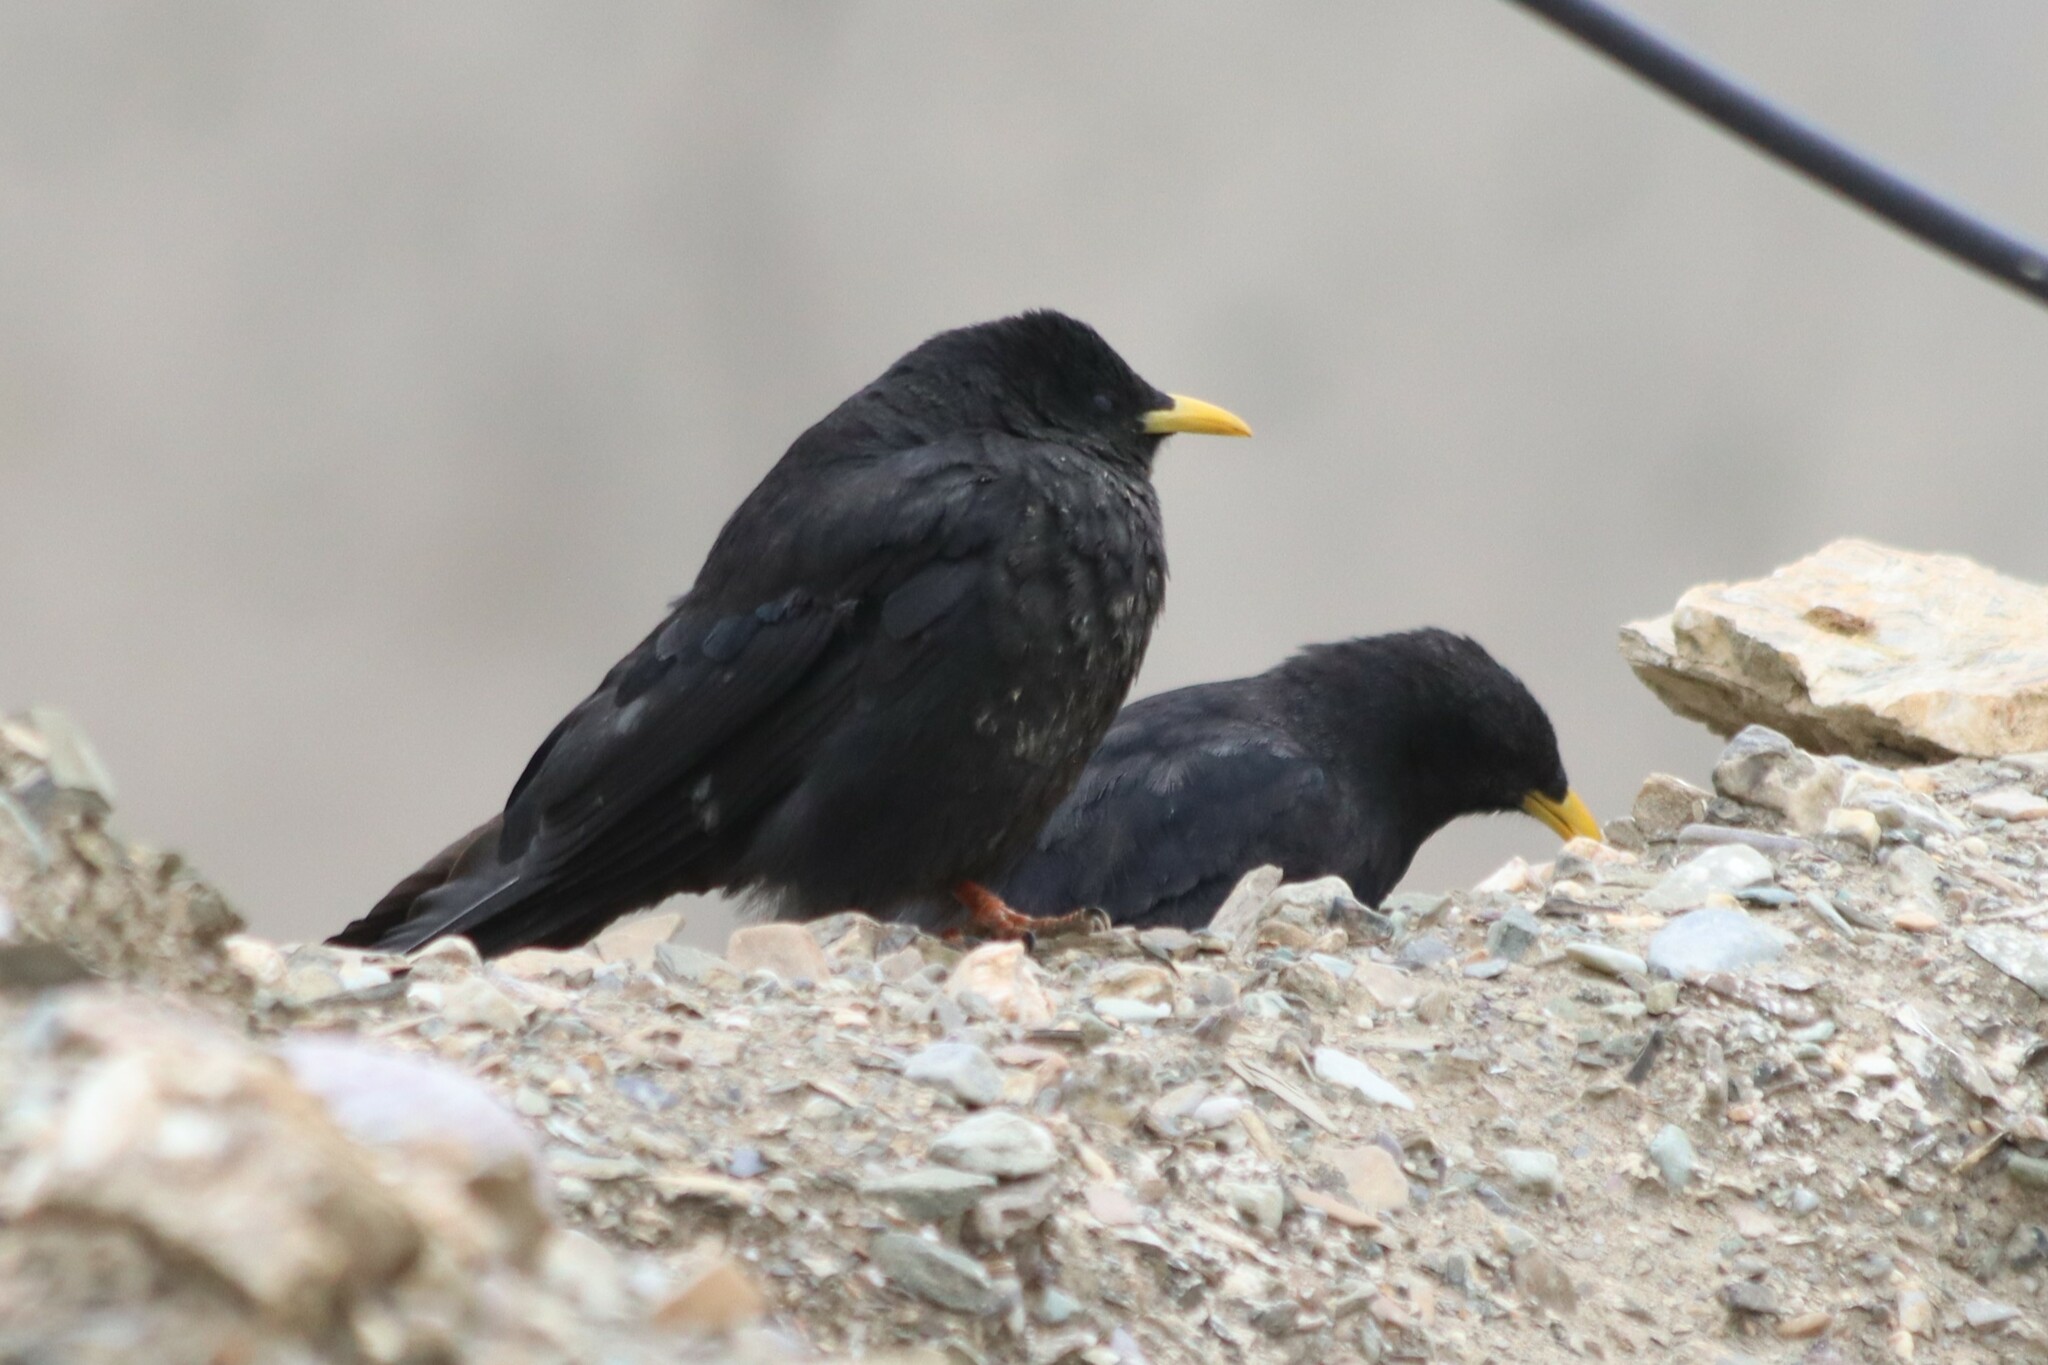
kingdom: Animalia
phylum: Chordata
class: Aves
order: Passeriformes
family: Corvidae
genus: Pyrrhocorax
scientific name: Pyrrhocorax graculus
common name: Alpine chough
